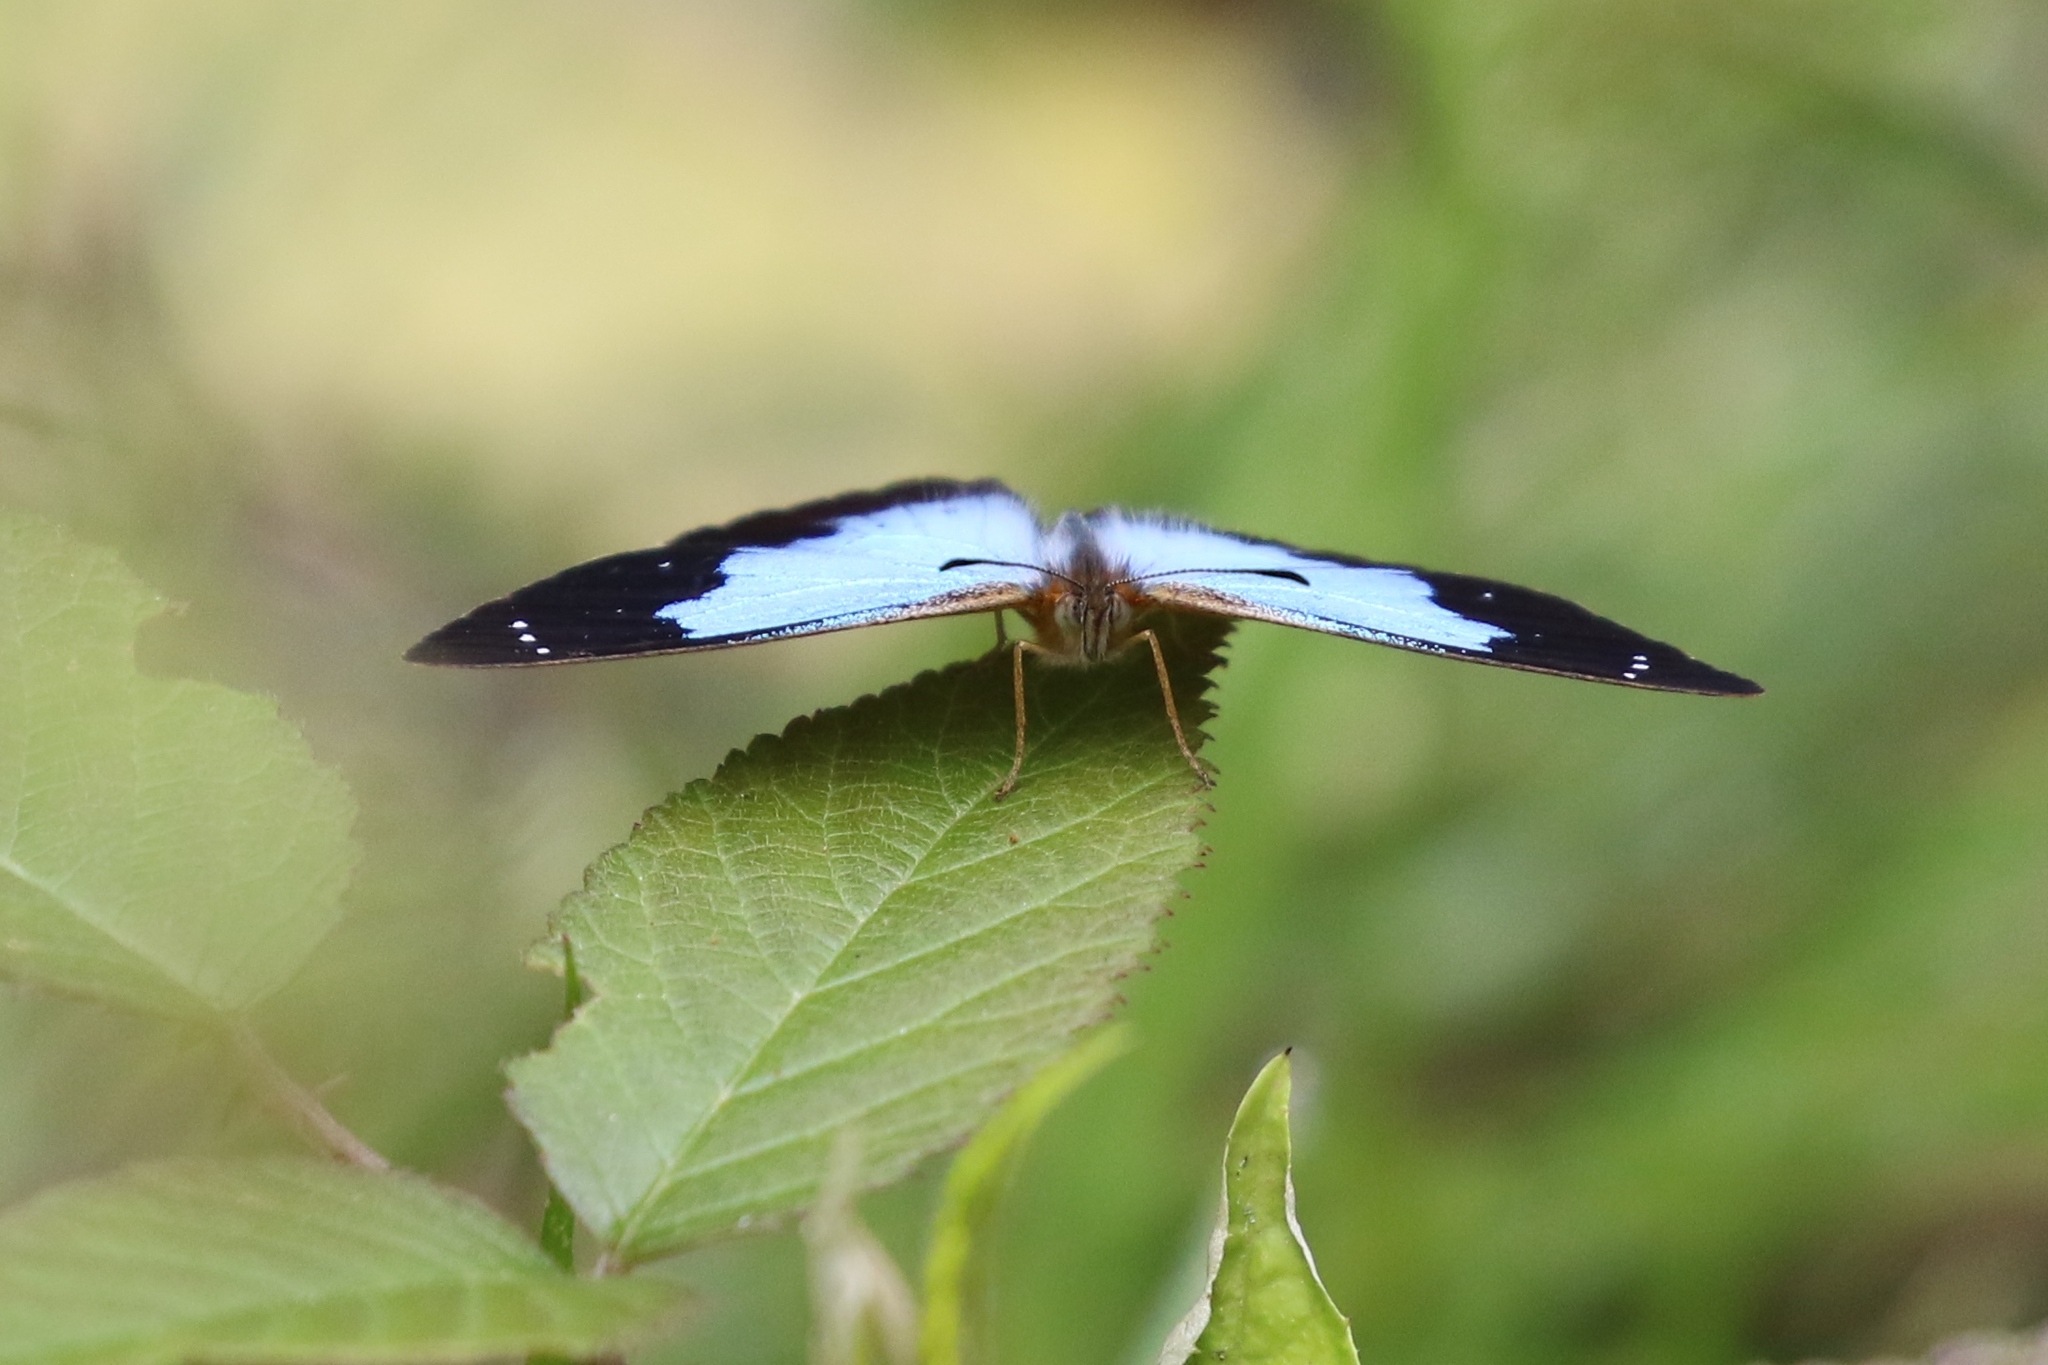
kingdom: Animalia
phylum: Arthropoda
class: Insecta
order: Lepidoptera
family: Nymphalidae
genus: Lymanopoda
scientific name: Lymanopoda caeruleata
